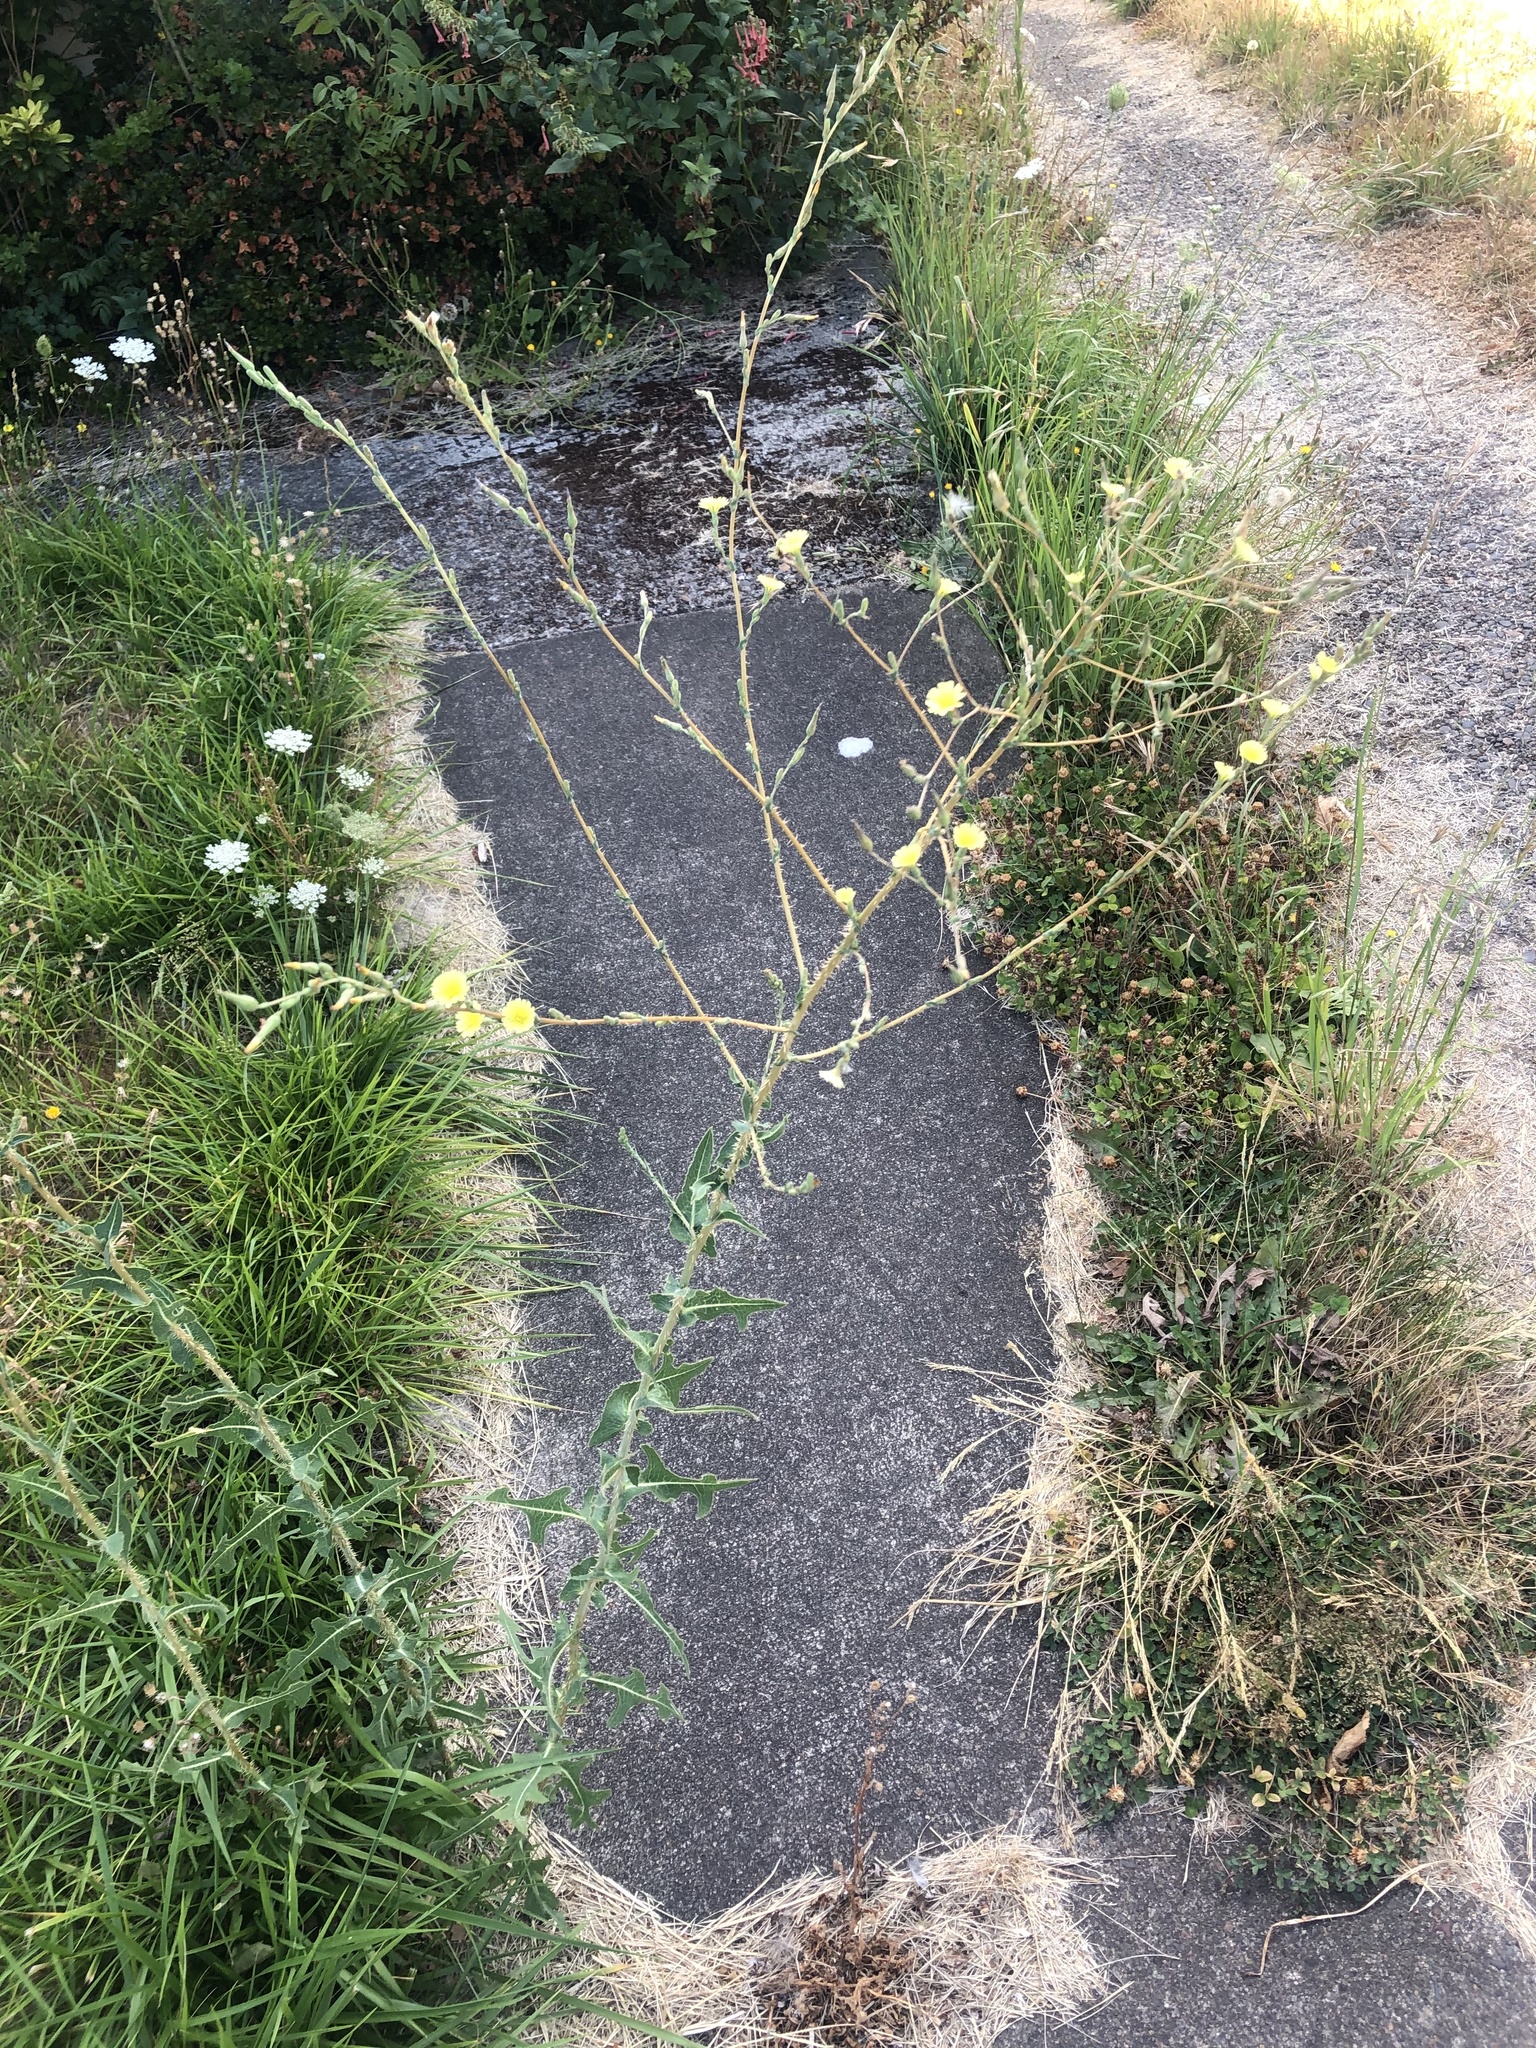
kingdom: Plantae
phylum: Tracheophyta
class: Magnoliopsida
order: Asterales
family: Asteraceae
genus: Lactuca
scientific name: Lactuca serriola
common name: Prickly lettuce
